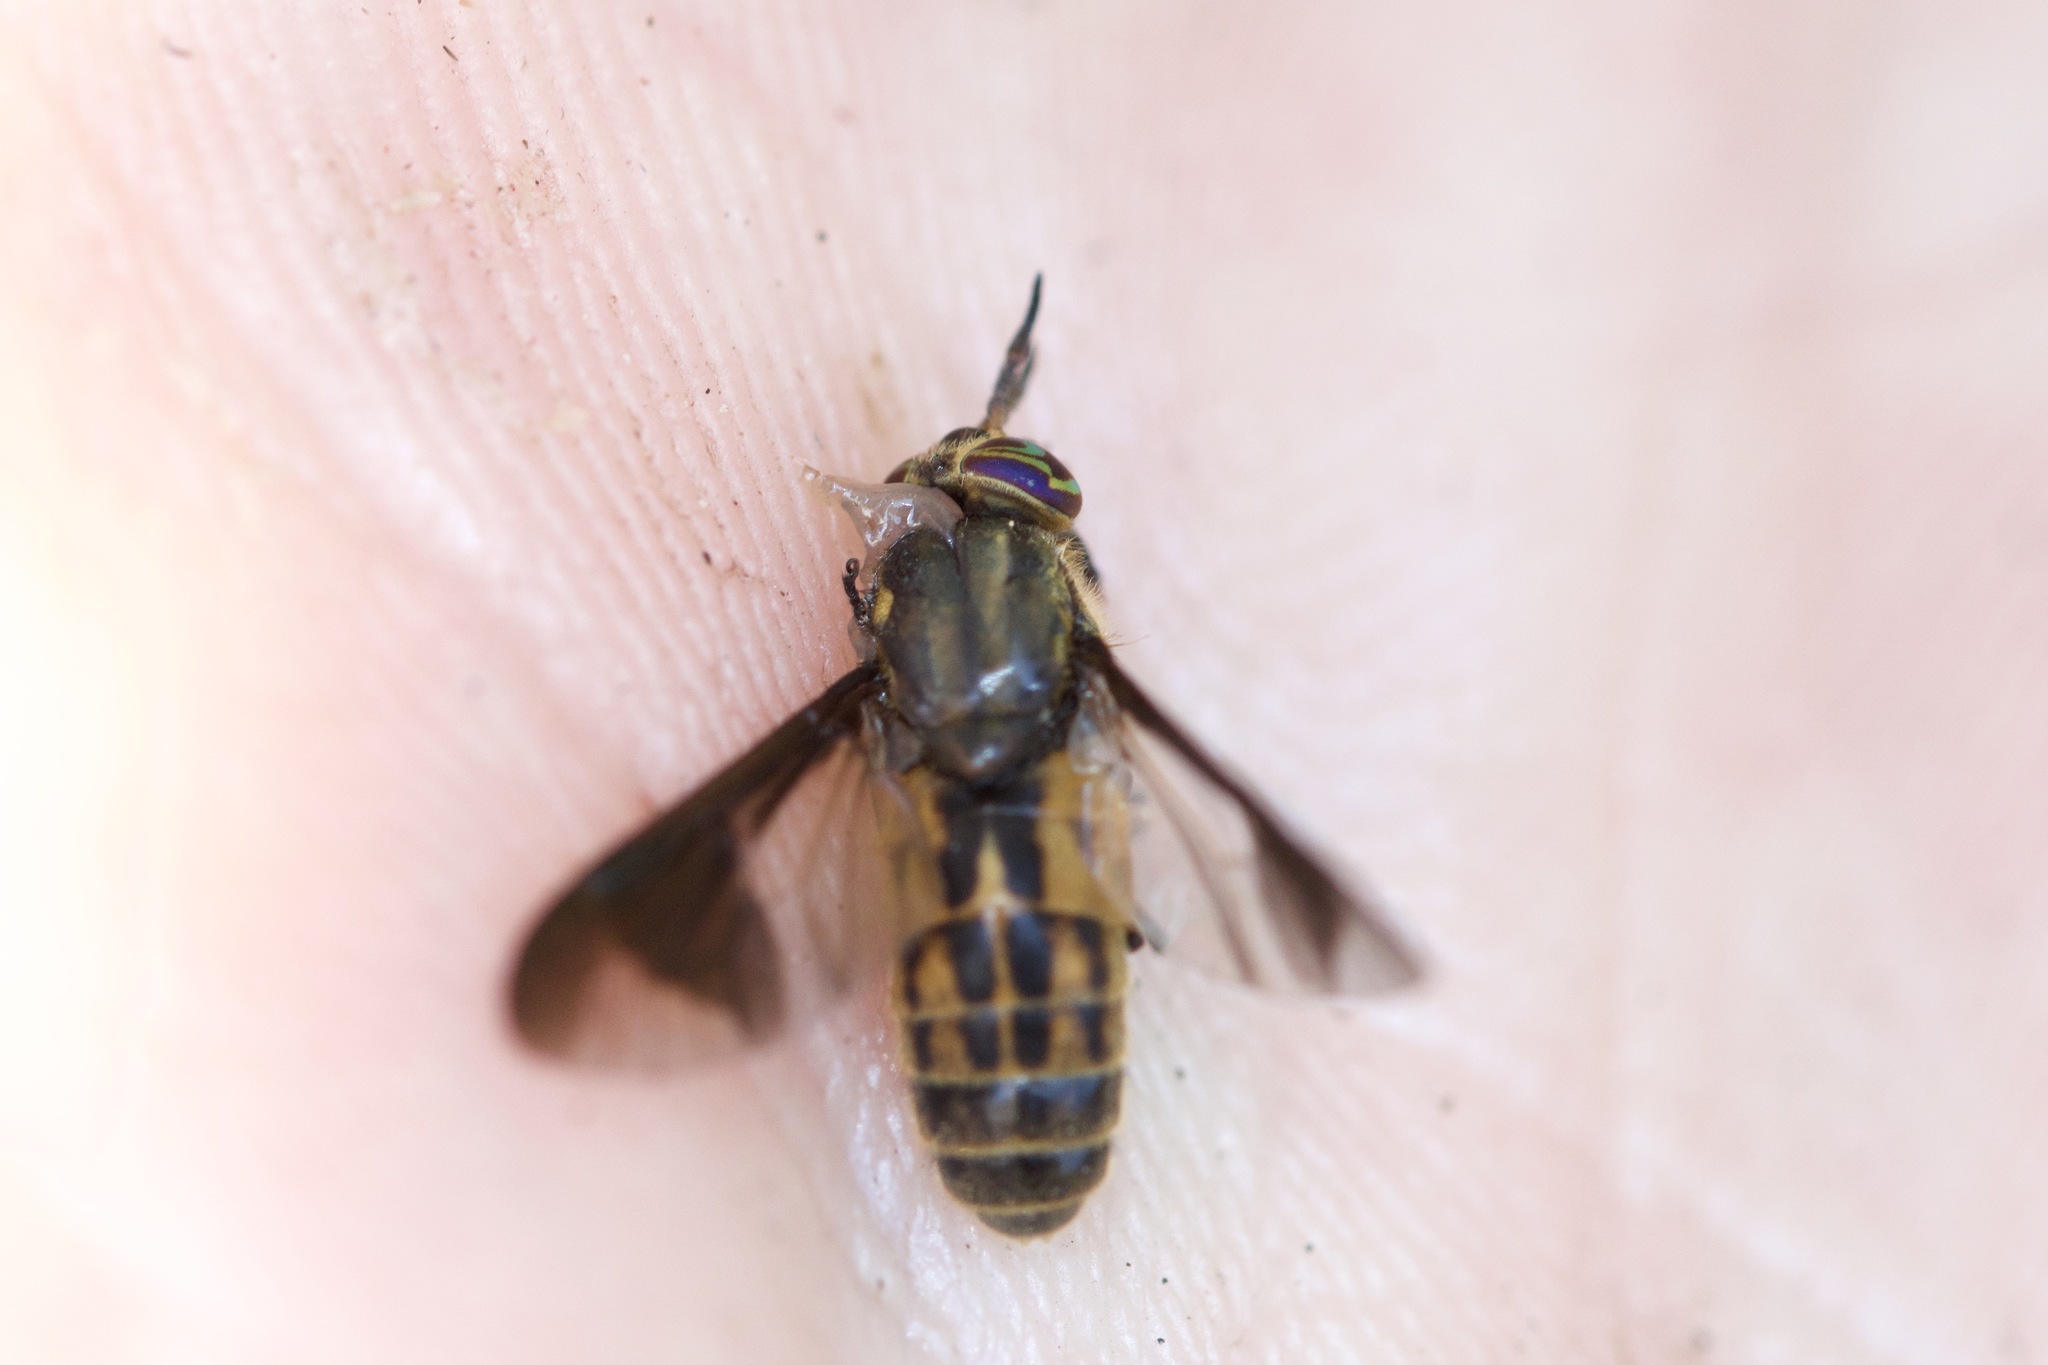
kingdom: Animalia
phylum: Arthropoda
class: Insecta
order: Diptera
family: Tabanidae
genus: Chrysops
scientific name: Chrysops striatus
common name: Striated deer fly
